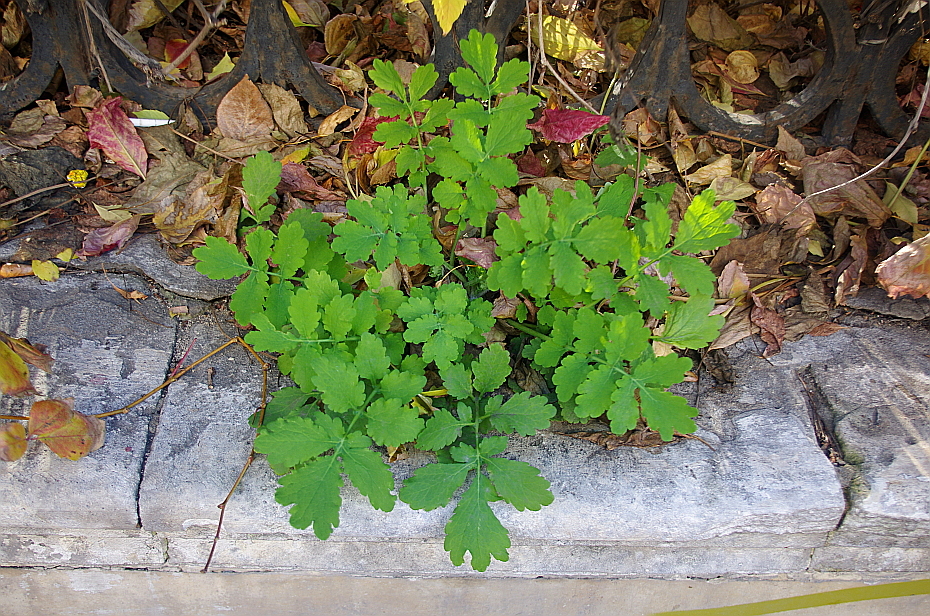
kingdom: Plantae
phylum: Tracheophyta
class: Magnoliopsida
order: Ranunculales
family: Papaveraceae
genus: Chelidonium
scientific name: Chelidonium majus
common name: Greater celandine
